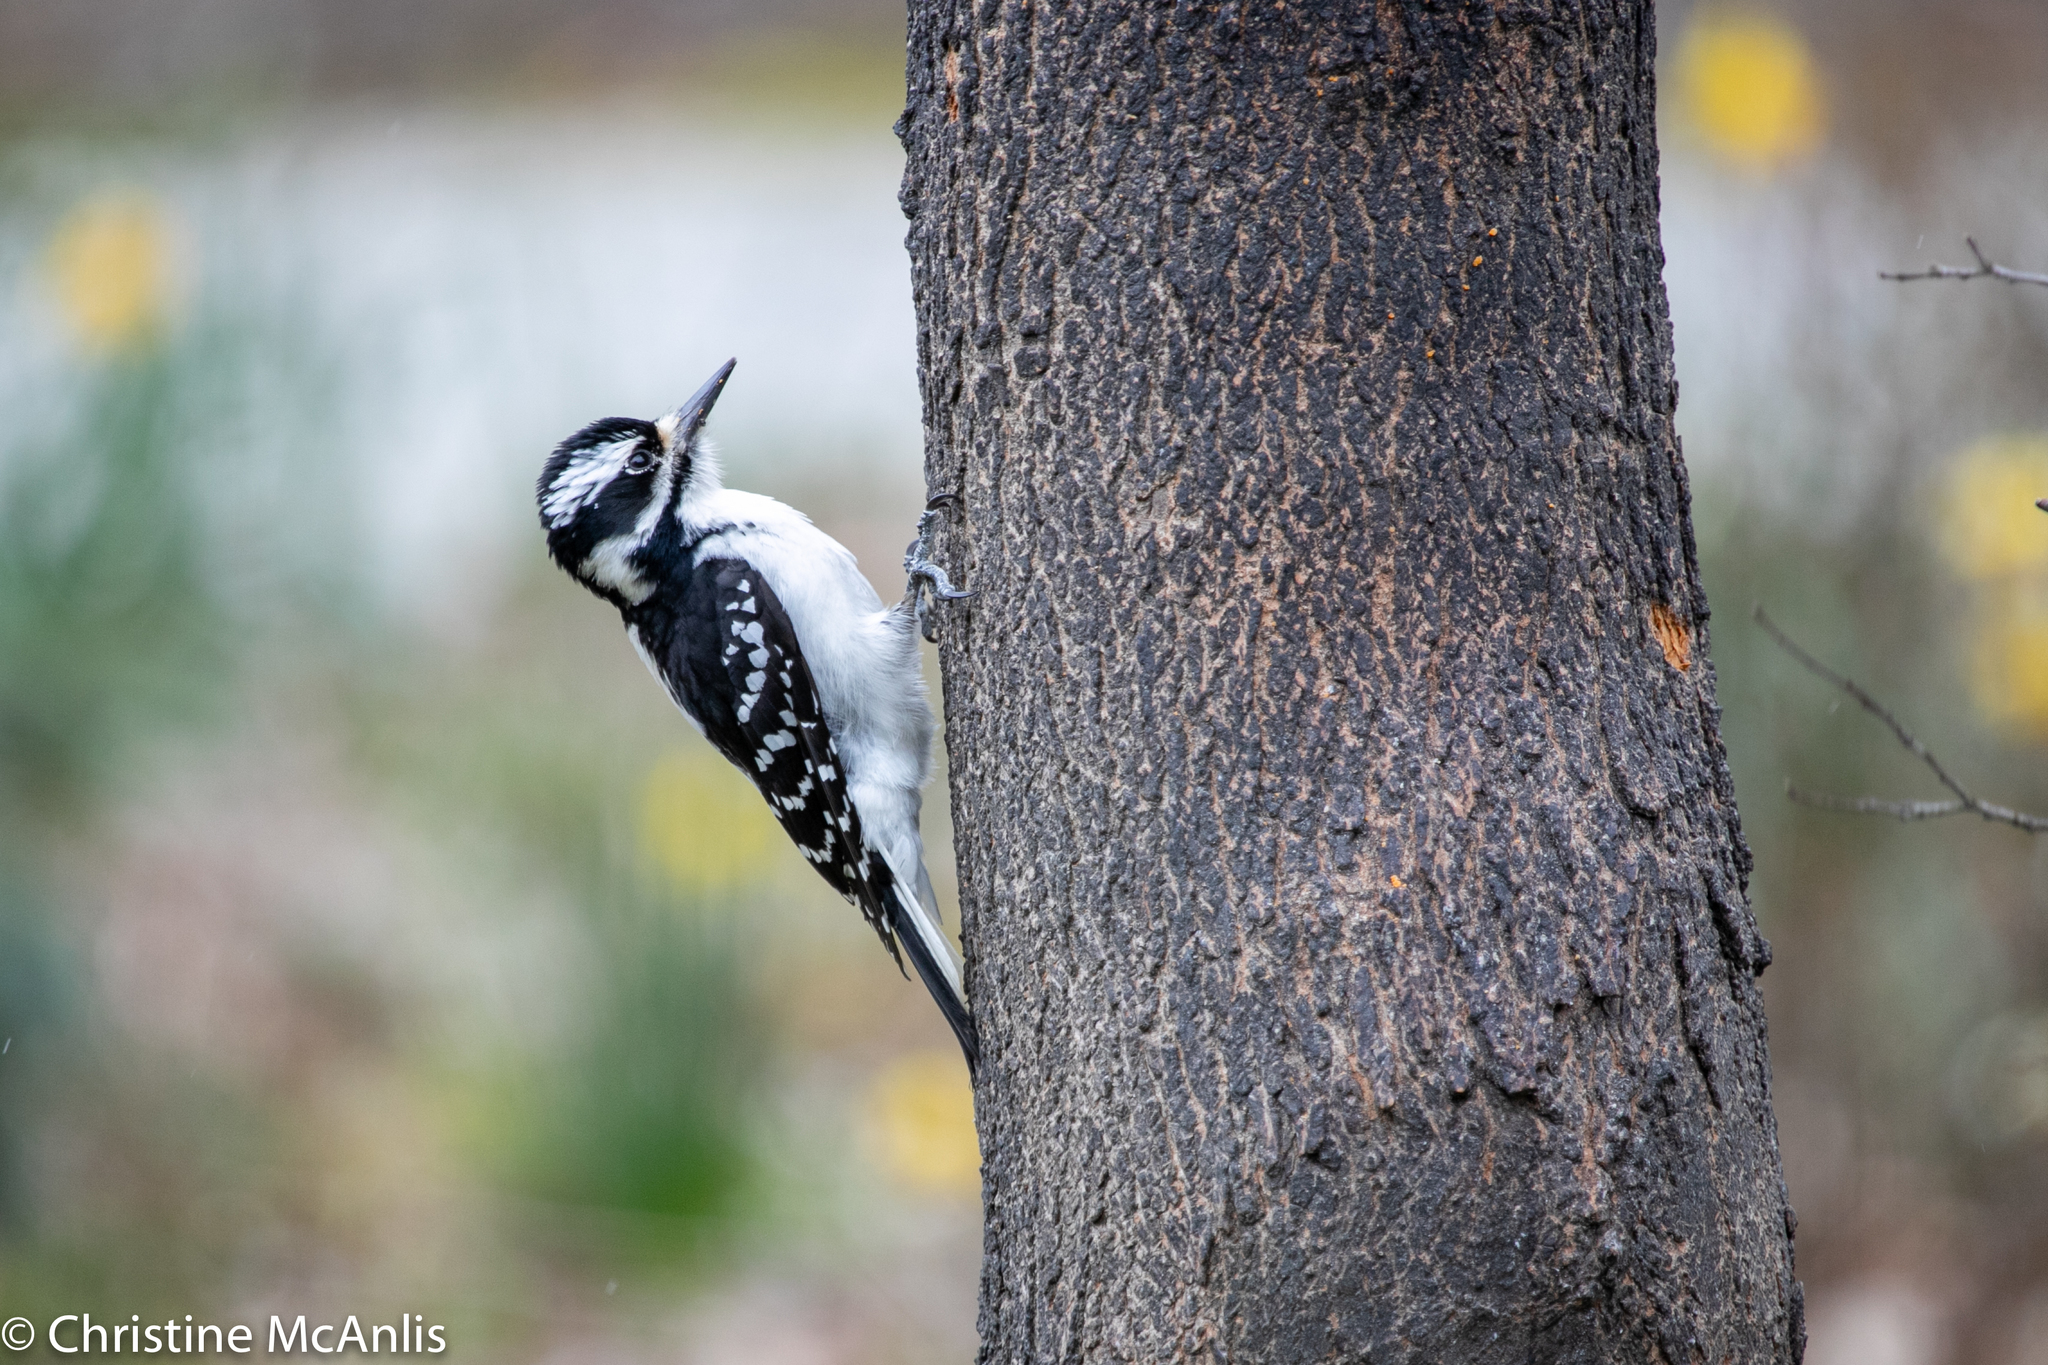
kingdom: Animalia
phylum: Chordata
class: Aves
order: Piciformes
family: Picidae
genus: Dryobates
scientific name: Dryobates pubescens
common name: Downy woodpecker
